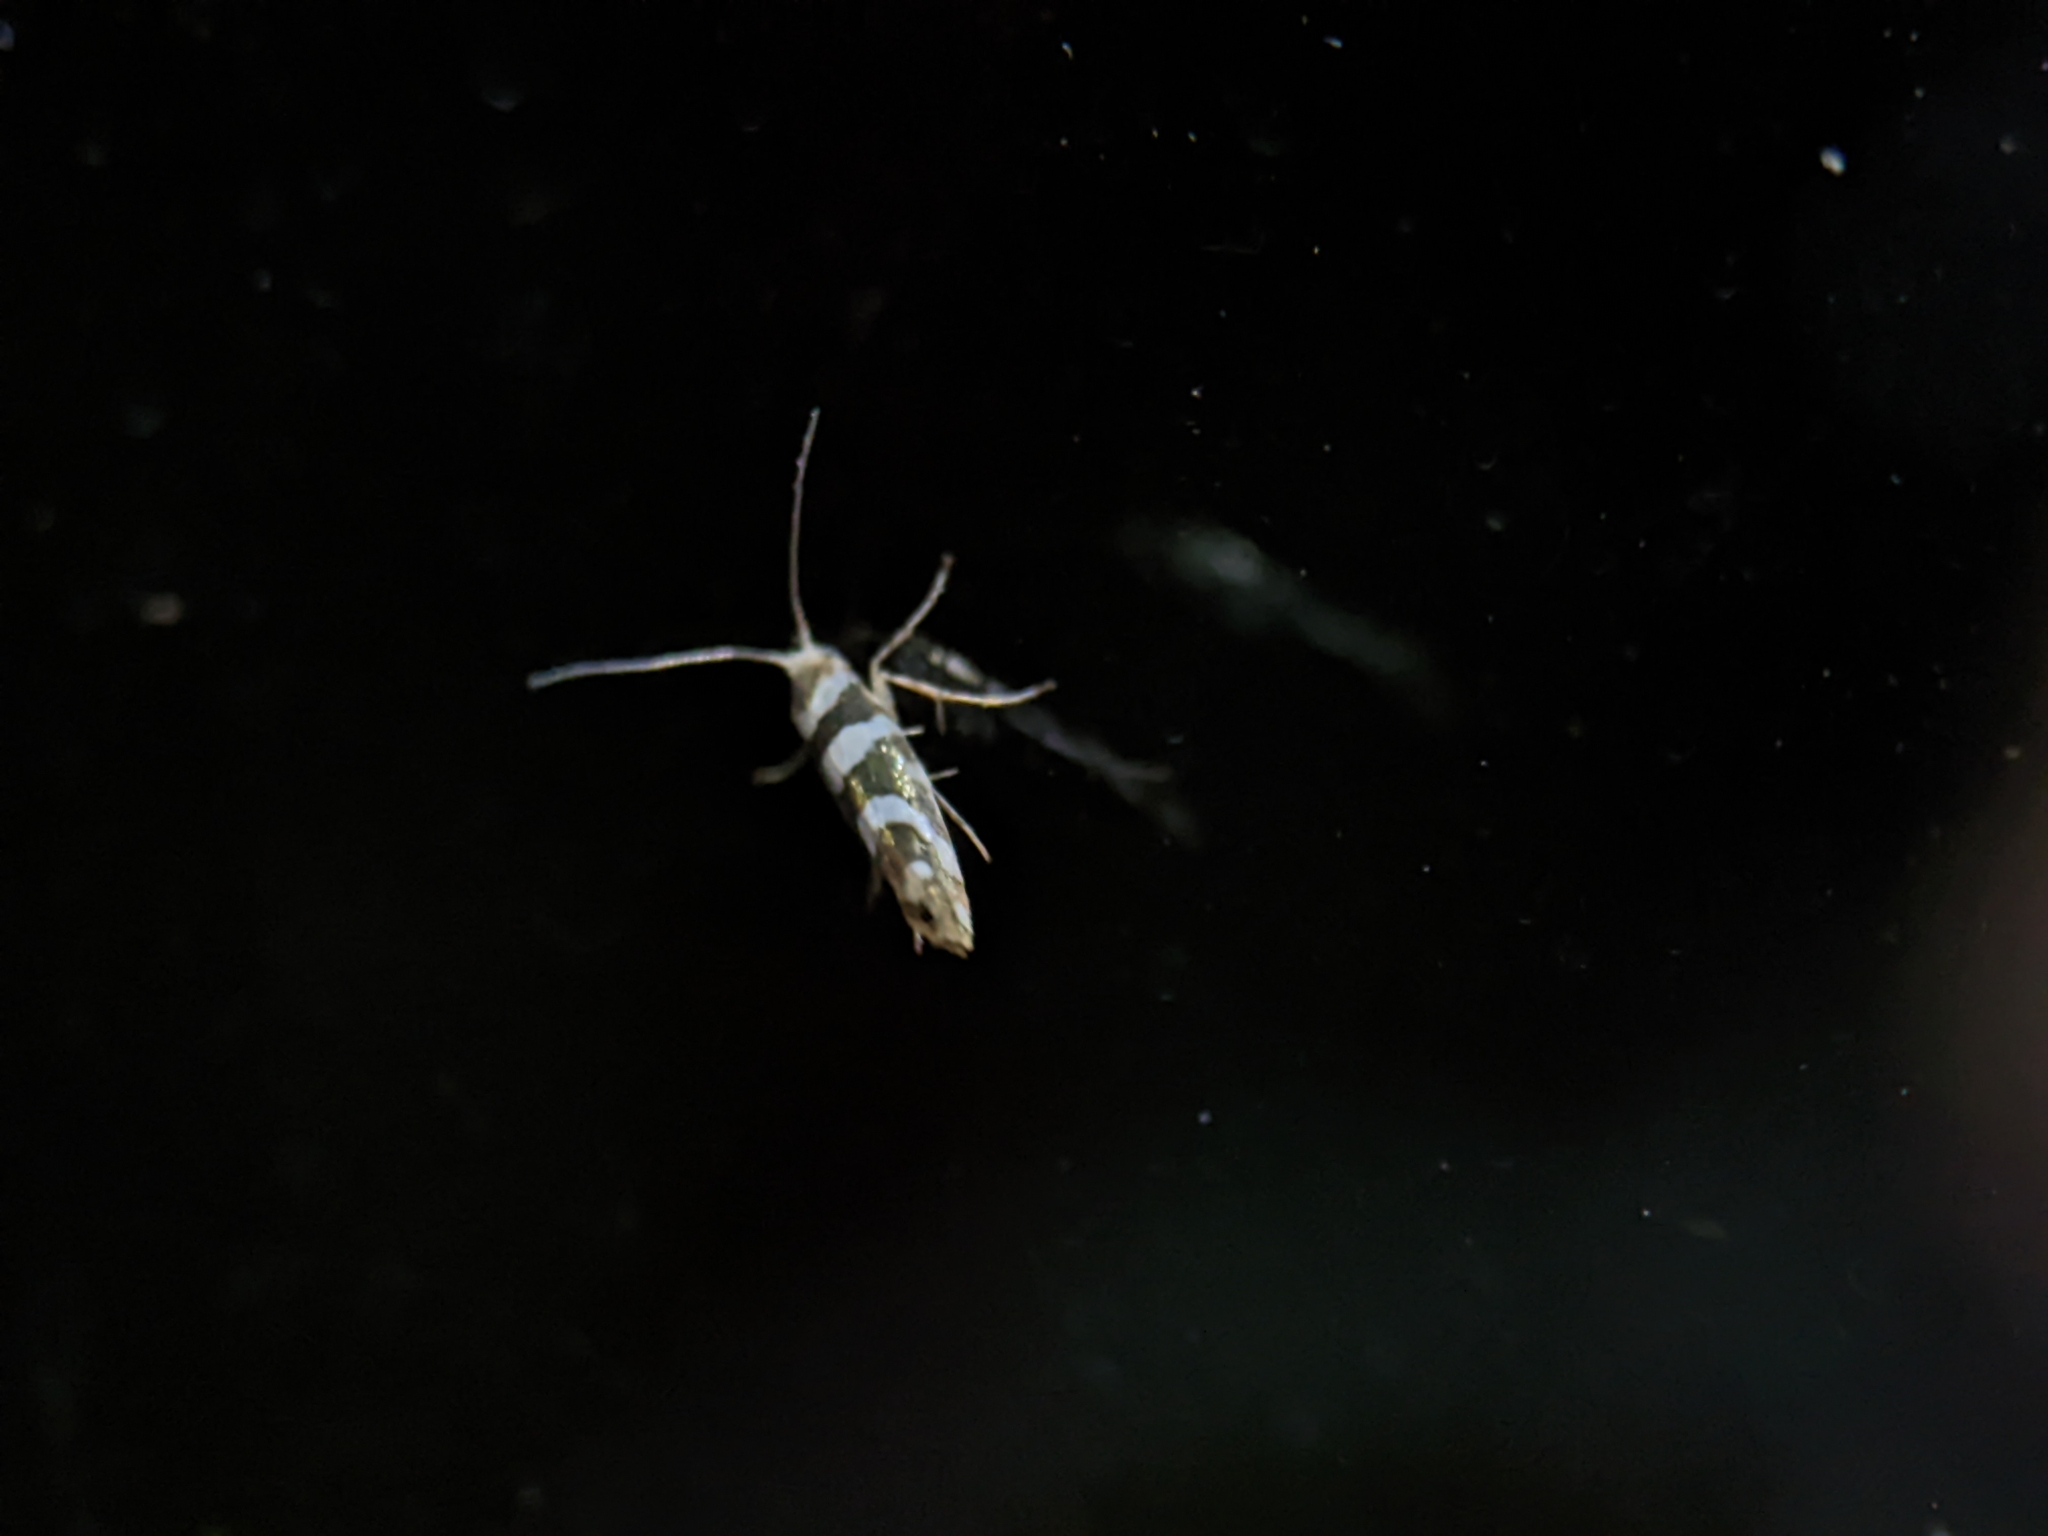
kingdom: Animalia
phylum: Arthropoda
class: Insecta
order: Lepidoptera
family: Argyresthiidae
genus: Argyresthia
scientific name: Argyresthia goedartella
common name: Golden argent
